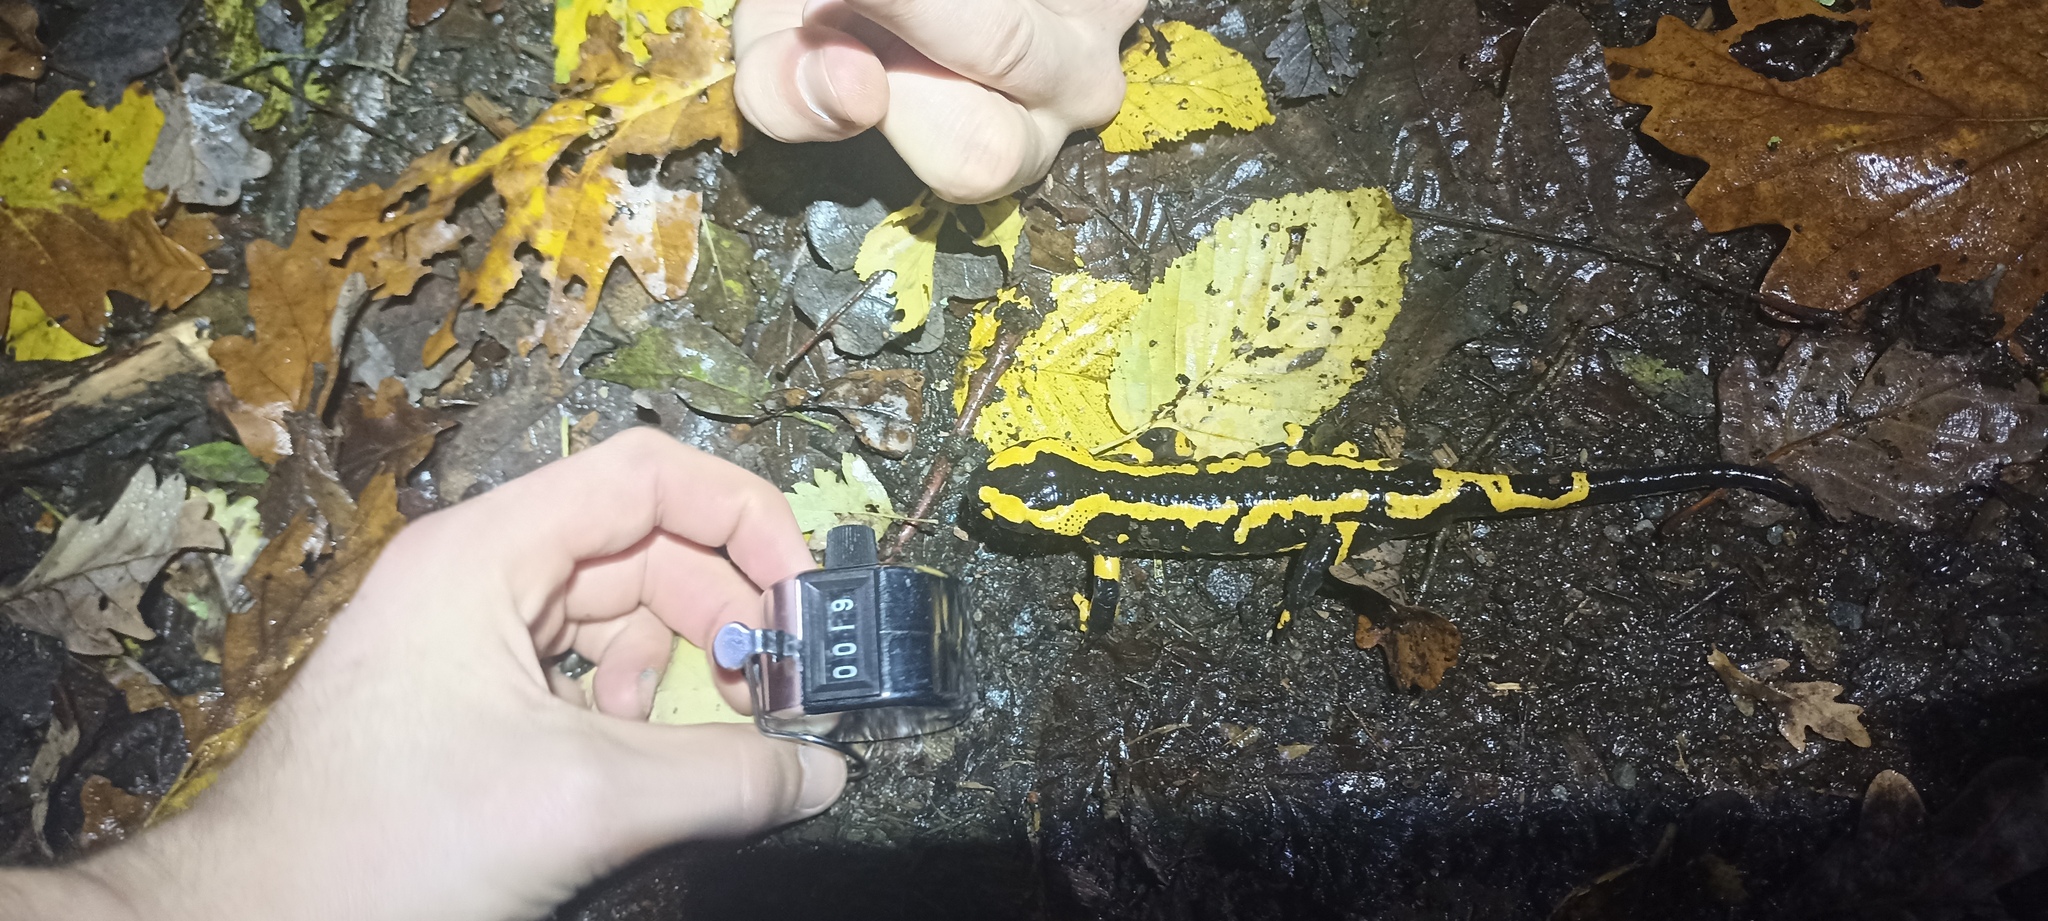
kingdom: Animalia
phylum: Chordata
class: Amphibia
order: Caudata
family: Salamandridae
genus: Salamandra
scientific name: Salamandra salamandra
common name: Fire salamander
